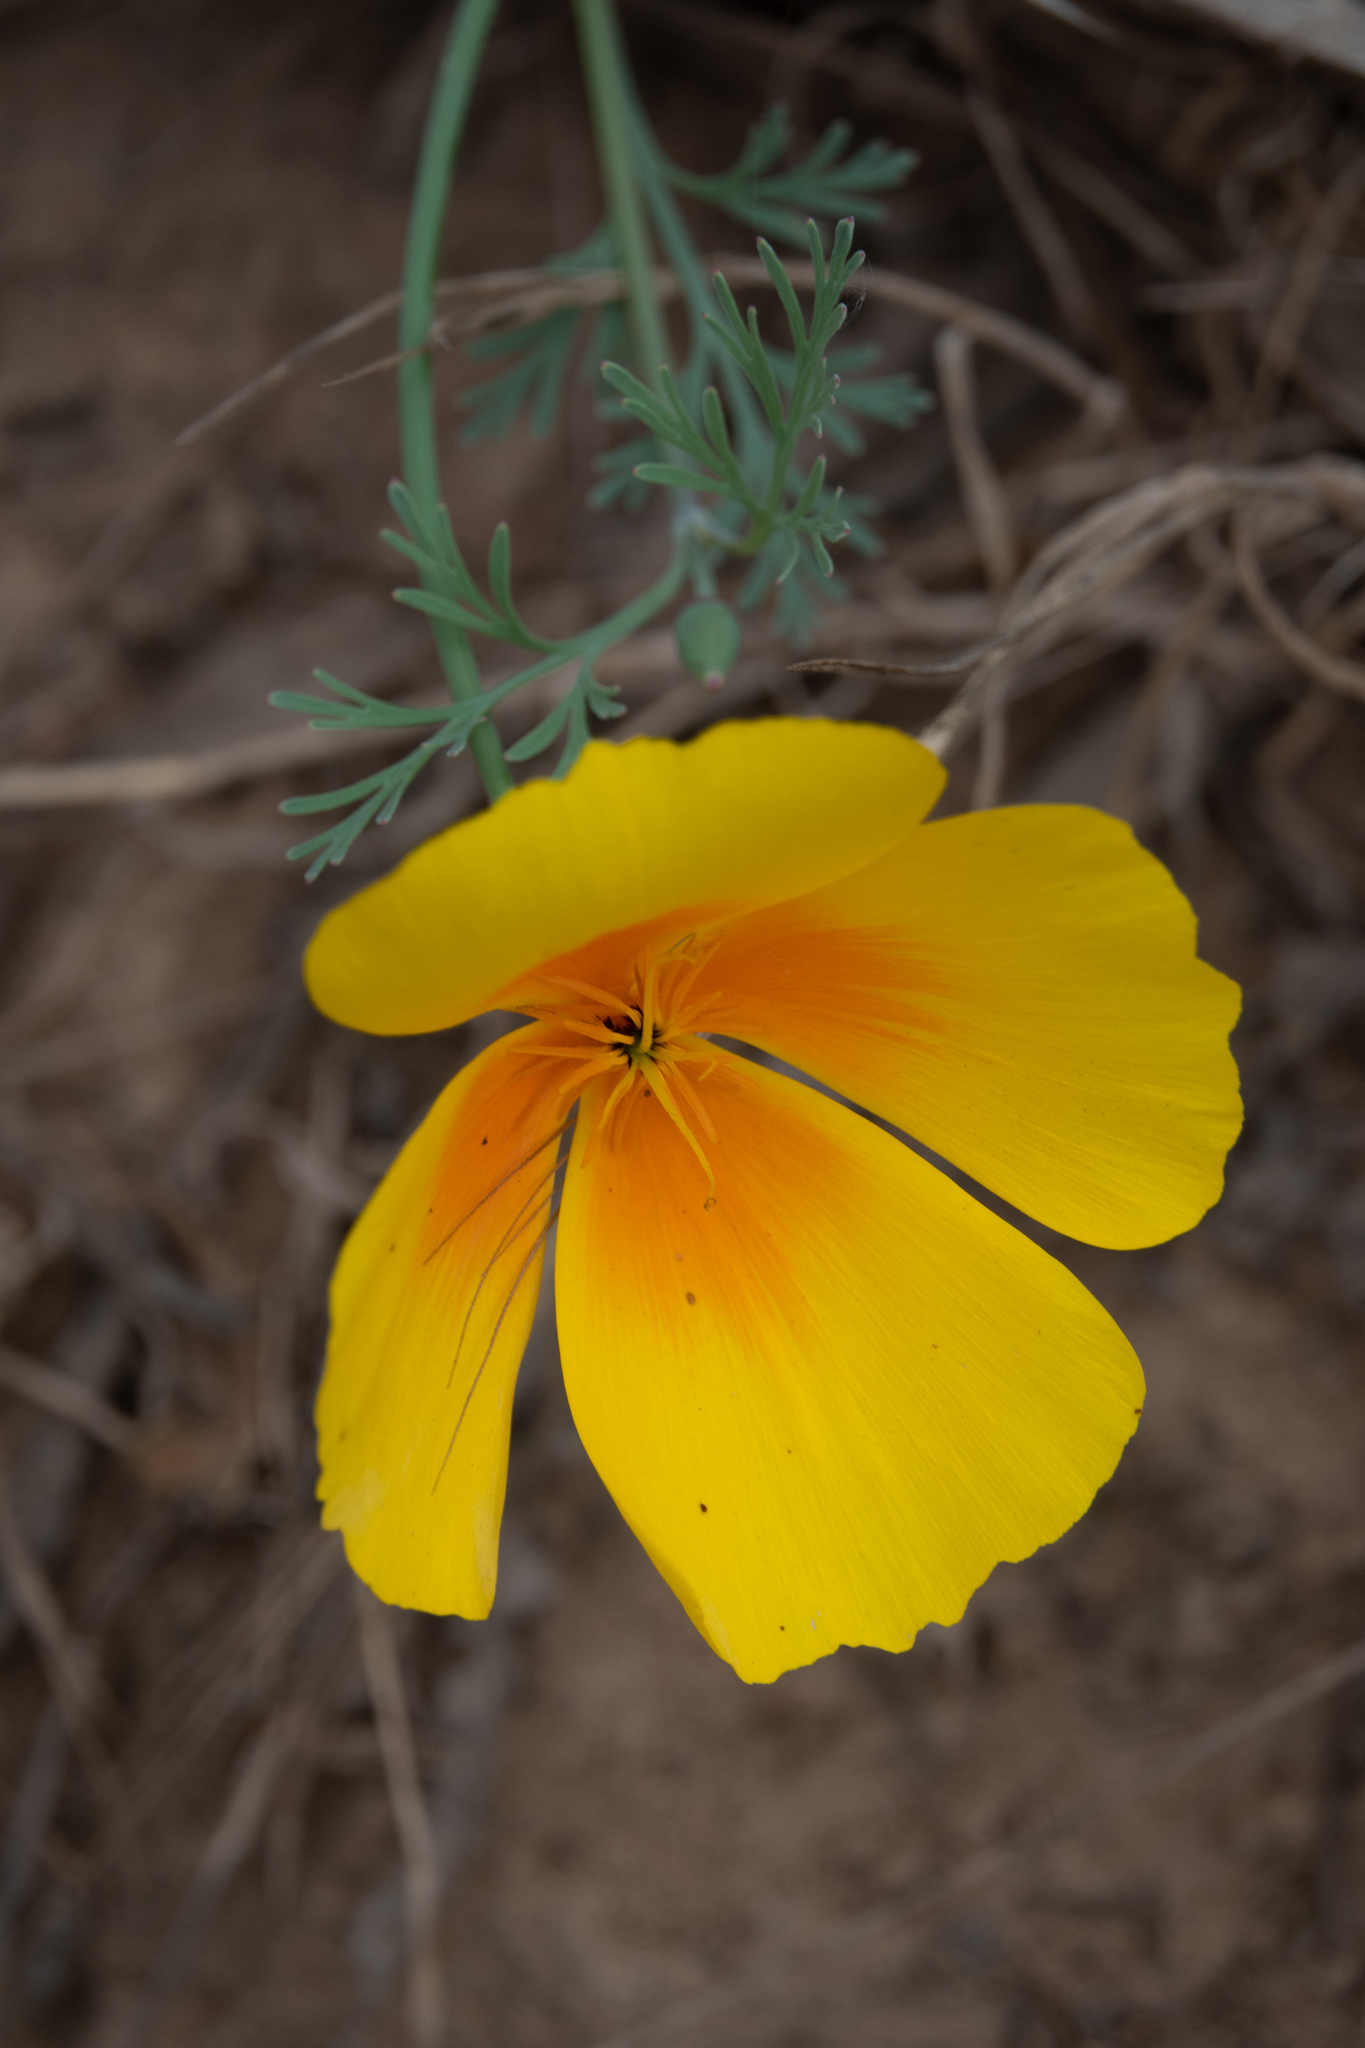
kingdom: Plantae
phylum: Tracheophyta
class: Magnoliopsida
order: Ranunculales
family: Papaveraceae
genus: Eschscholzia
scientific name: Eschscholzia californica
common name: California poppy
